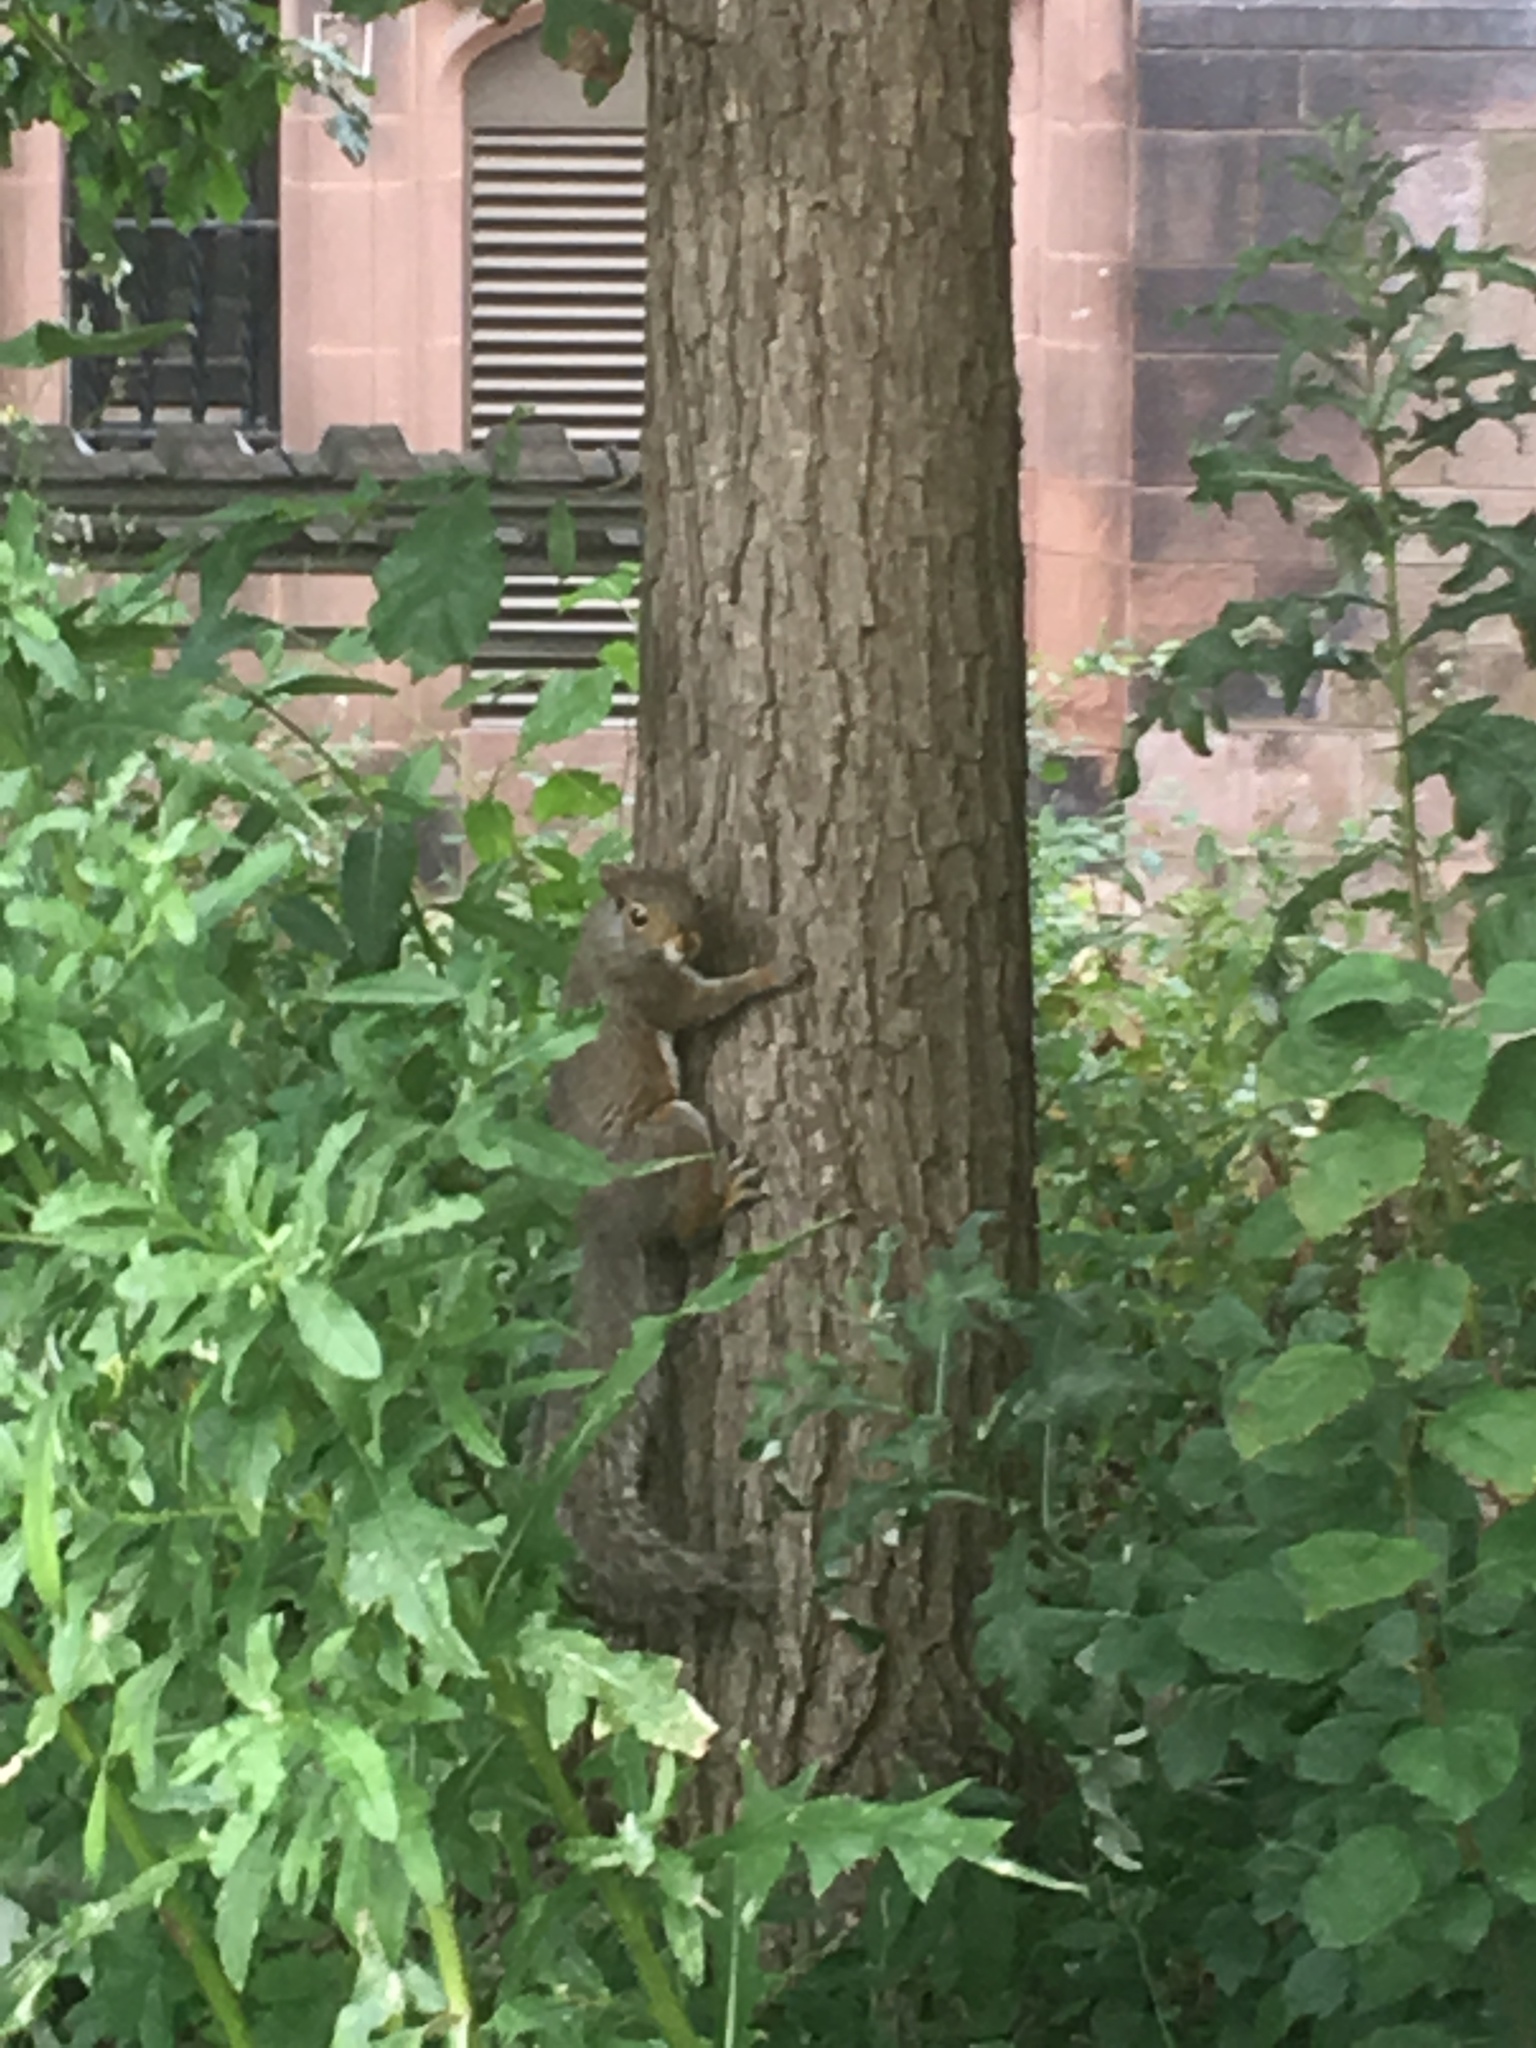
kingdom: Animalia
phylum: Chordata
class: Mammalia
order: Rodentia
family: Sciuridae
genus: Sciurus
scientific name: Sciurus carolinensis
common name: Eastern gray squirrel
